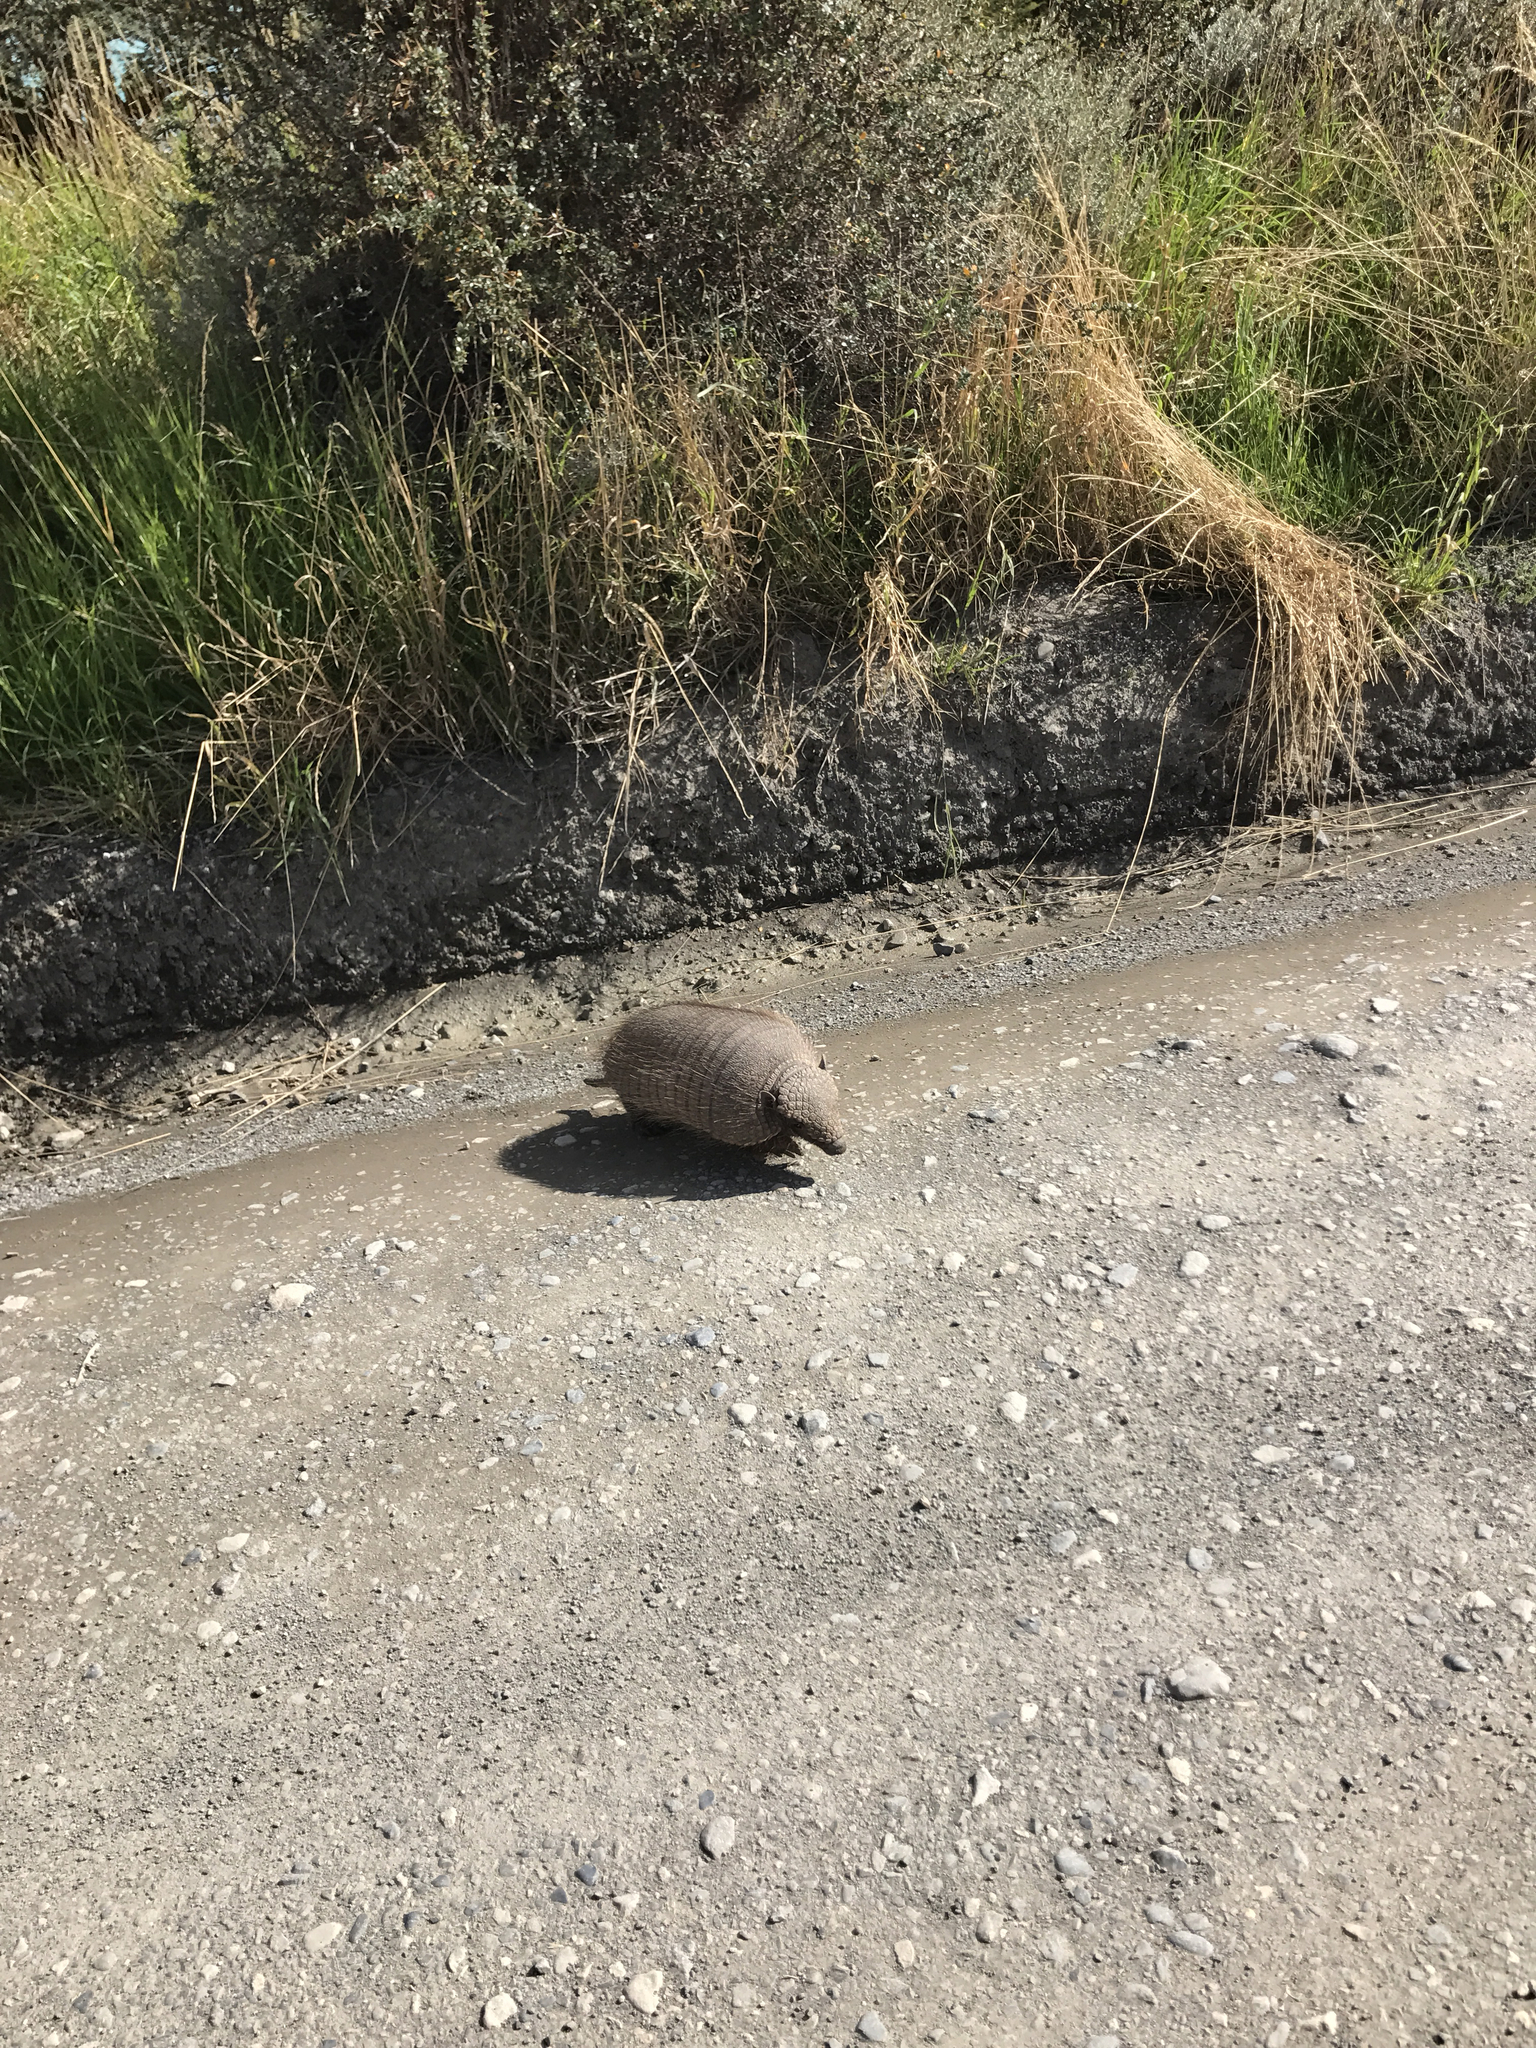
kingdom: Animalia
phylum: Chordata
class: Mammalia
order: Cingulata
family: Dasypodidae
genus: Chaetophractus
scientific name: Chaetophractus villosus
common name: Big hairy armadillo
